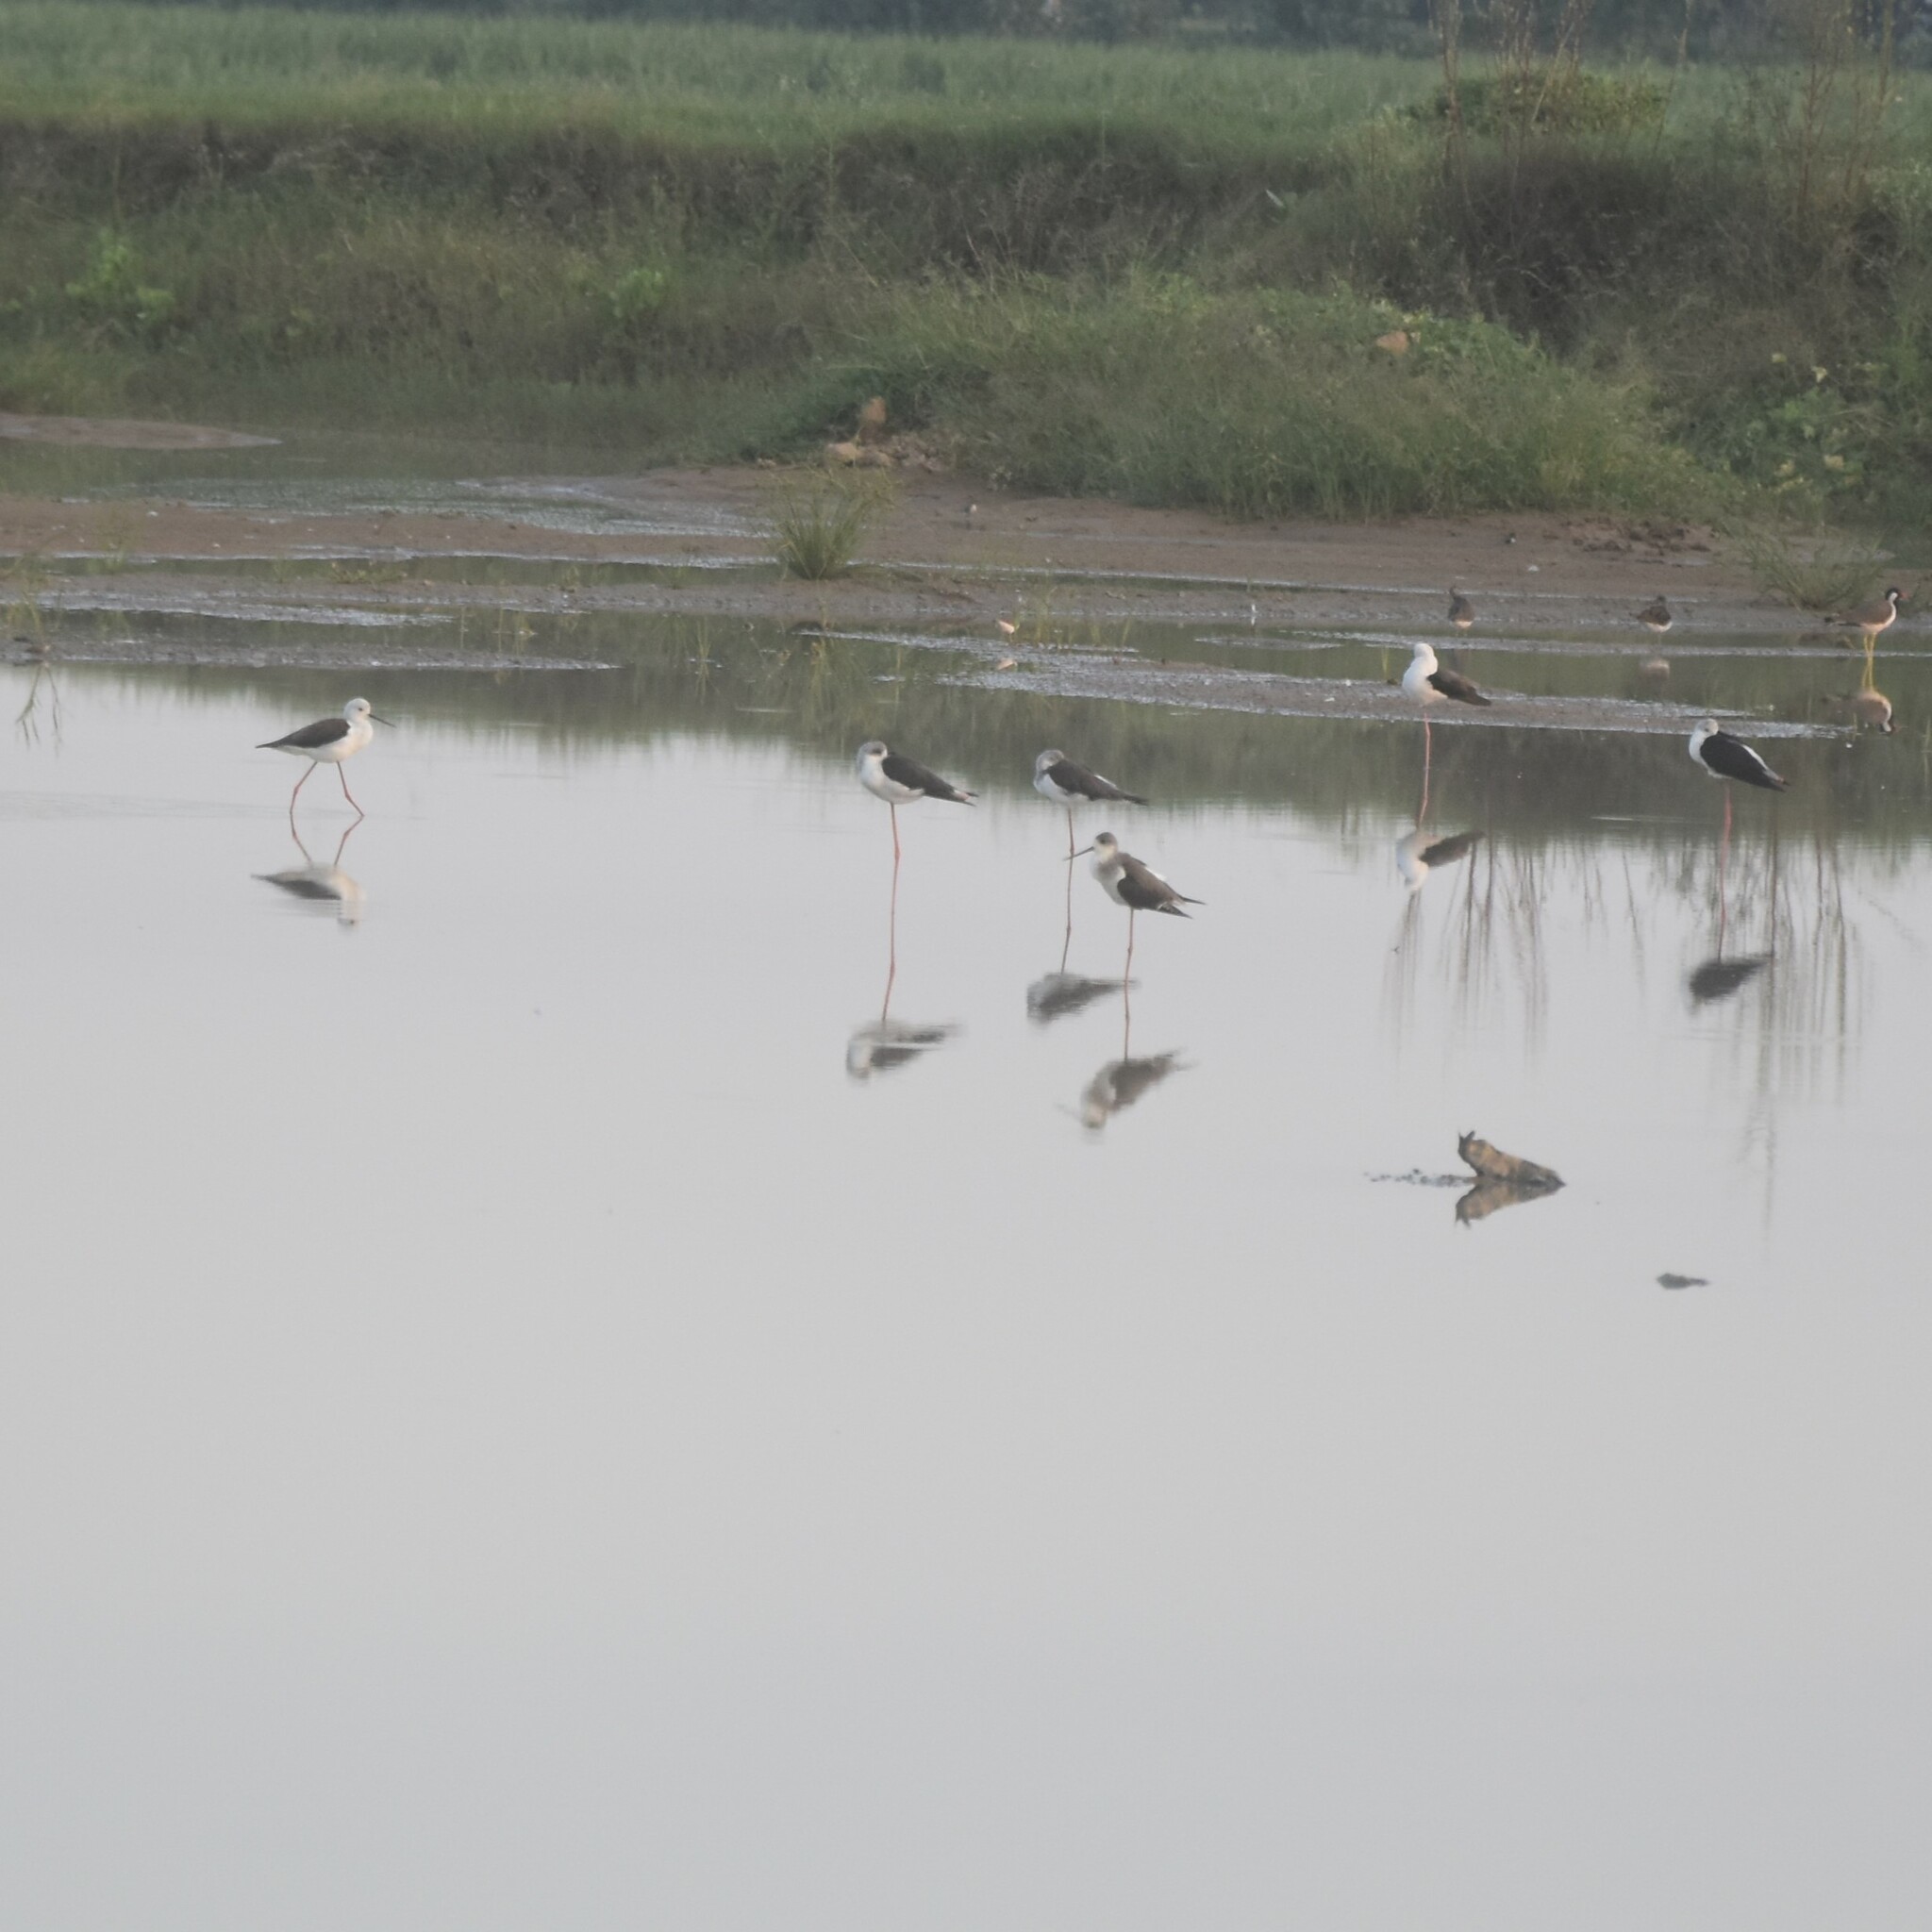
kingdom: Animalia
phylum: Chordata
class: Aves
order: Charadriiformes
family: Recurvirostridae
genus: Himantopus
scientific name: Himantopus himantopus
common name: Black-winged stilt
